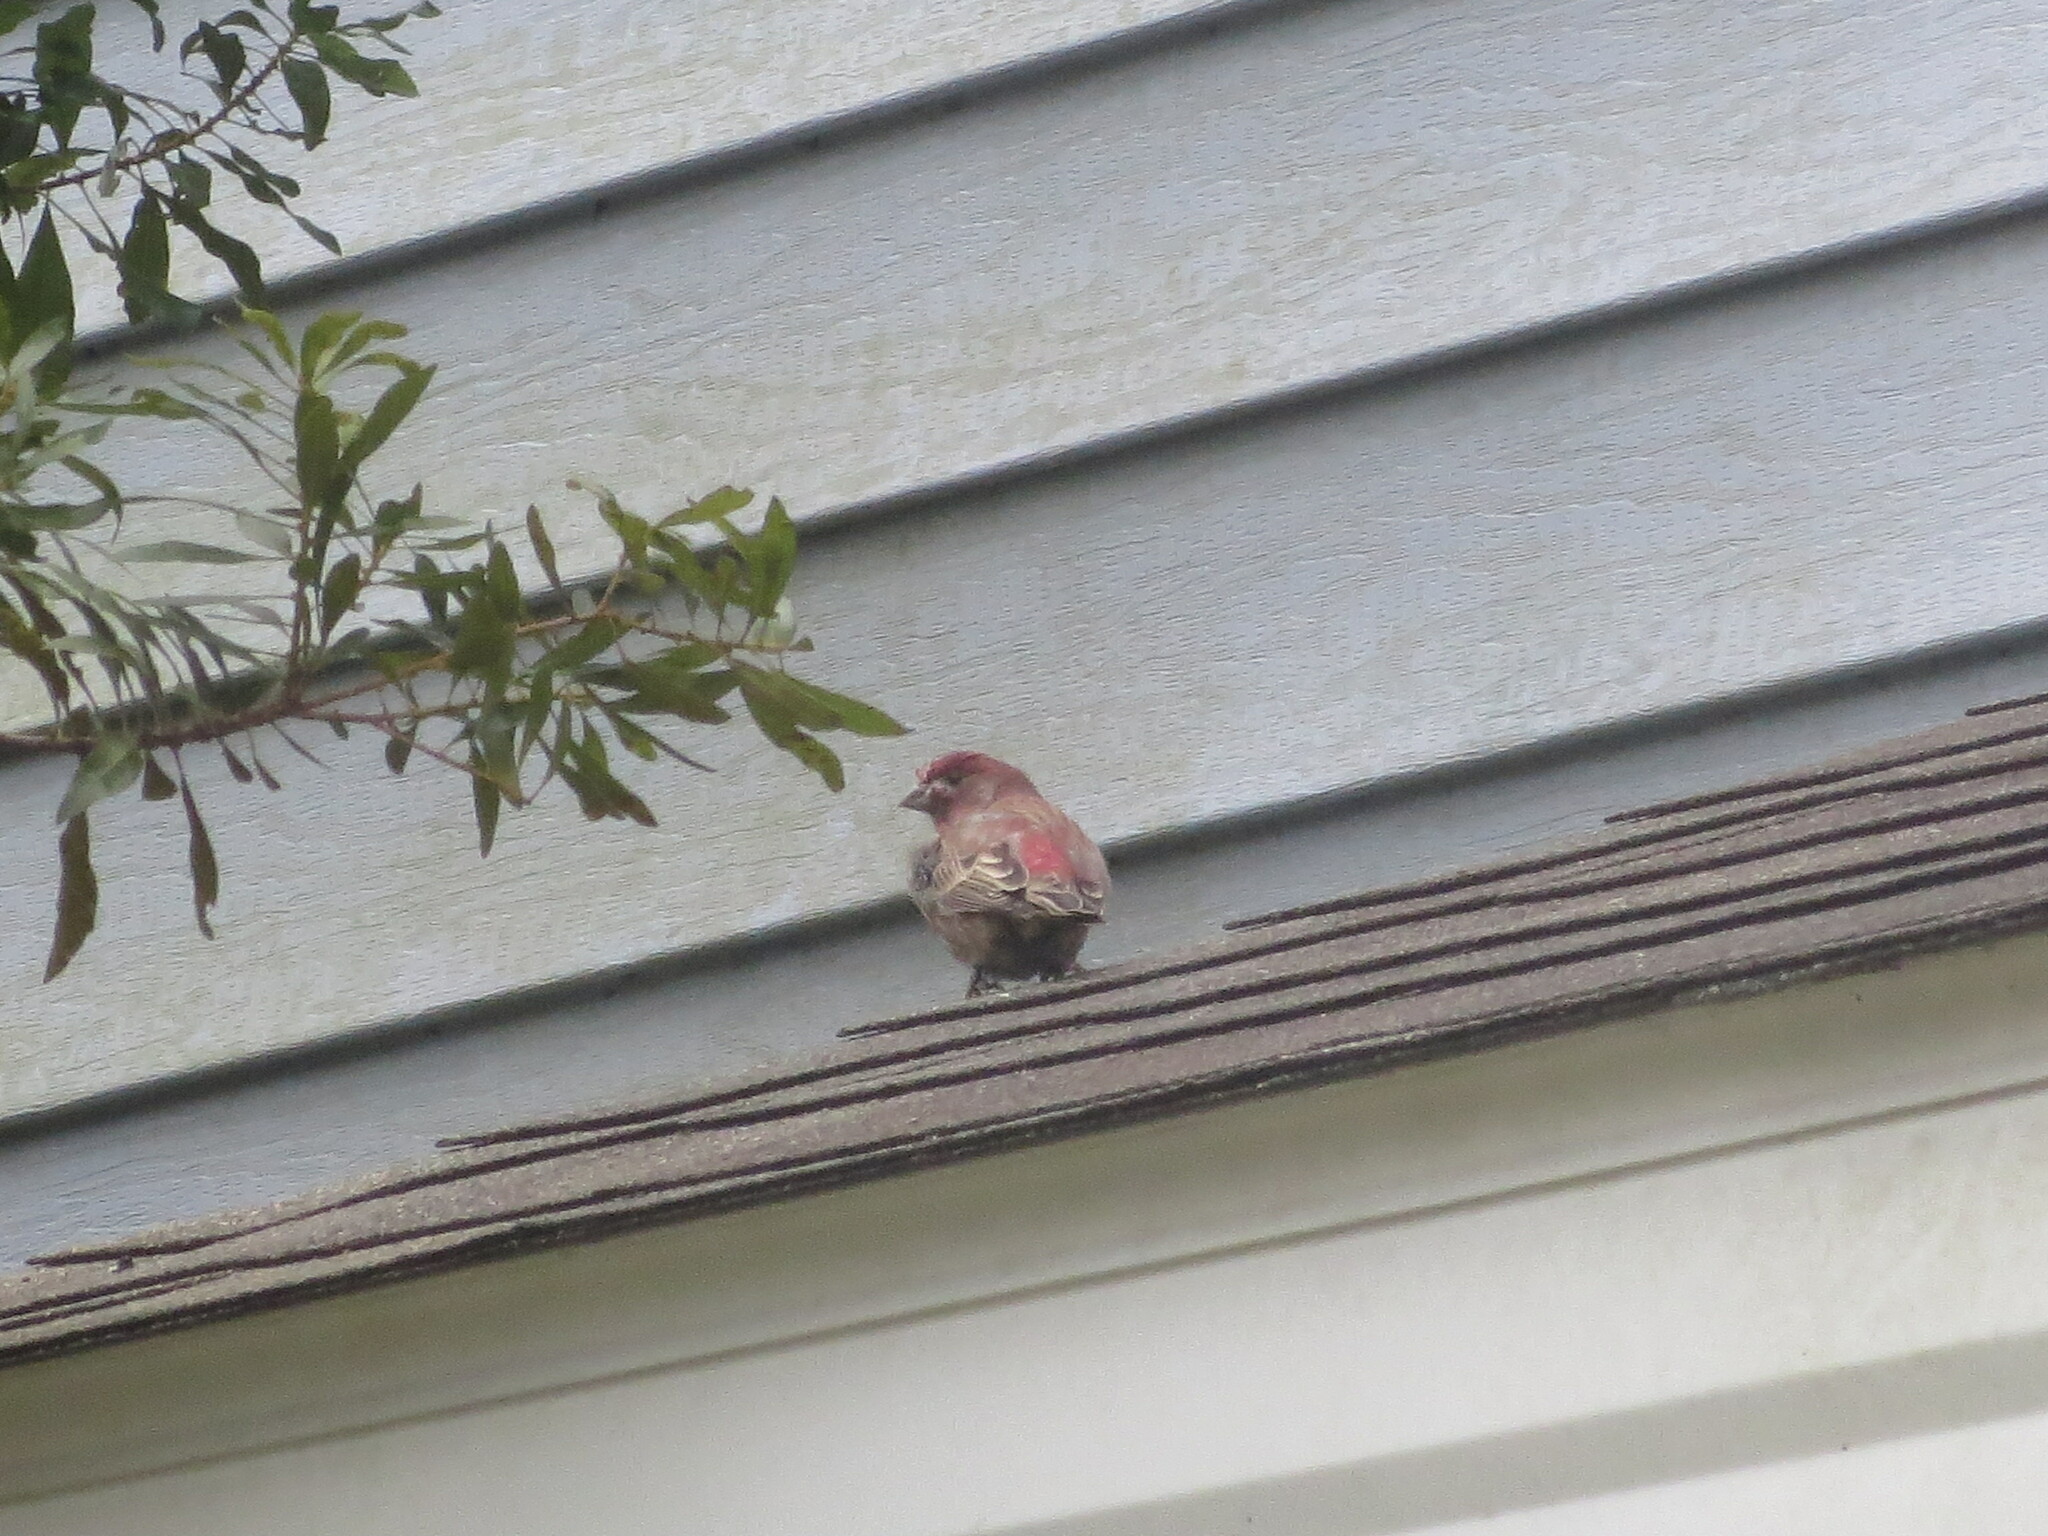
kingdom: Animalia
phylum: Chordata
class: Aves
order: Passeriformes
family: Fringillidae
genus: Haemorhous
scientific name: Haemorhous mexicanus
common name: House finch
